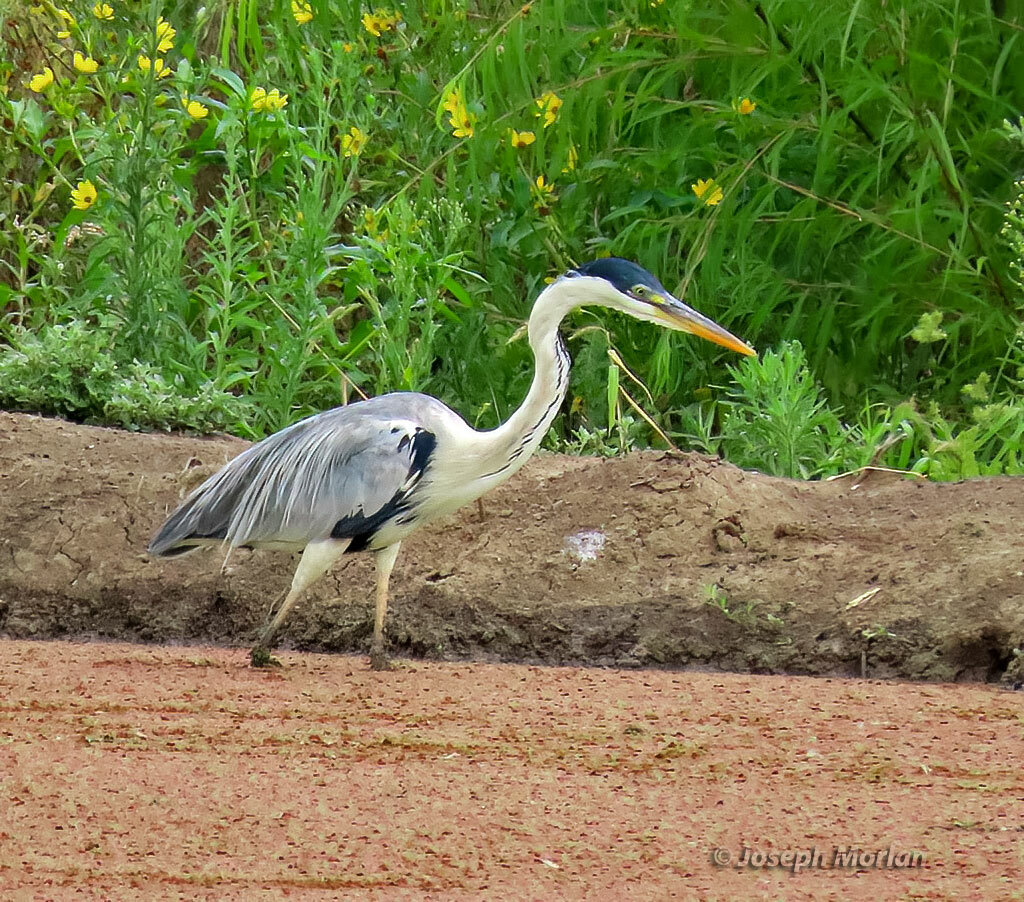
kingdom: Animalia
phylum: Chordata
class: Aves
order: Pelecaniformes
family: Ardeidae
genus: Ardea
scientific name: Ardea cocoi
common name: Cocoi heron
